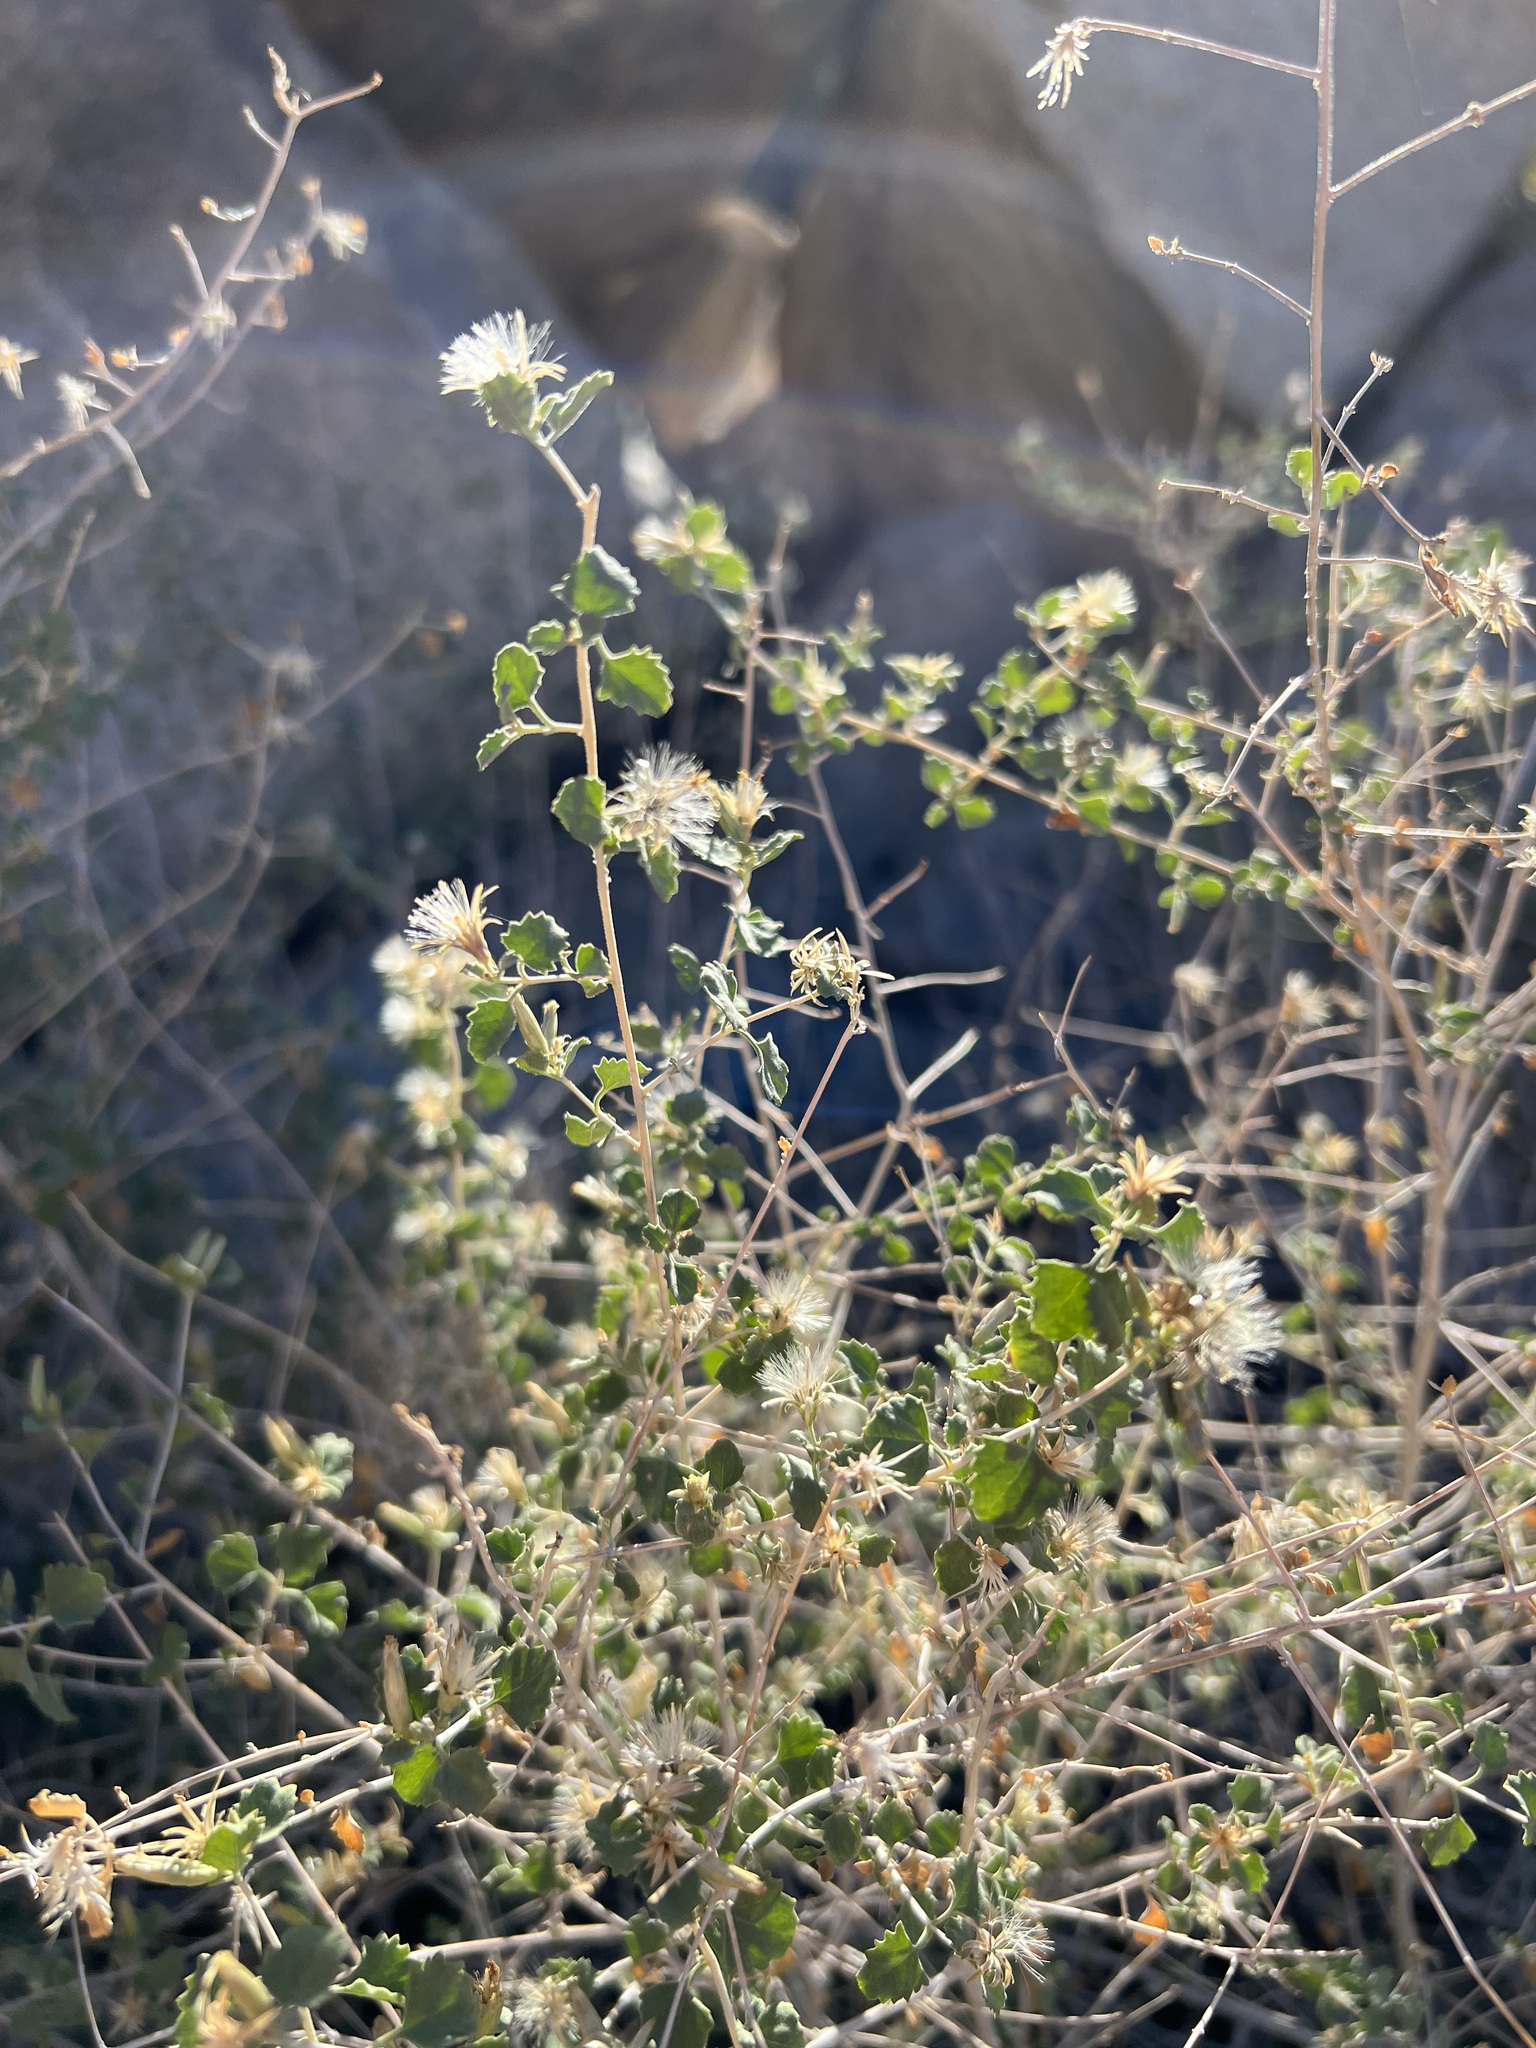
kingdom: Plantae
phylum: Tracheophyta
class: Magnoliopsida
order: Asterales
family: Asteraceae
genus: Brickellia
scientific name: Brickellia desertorum
